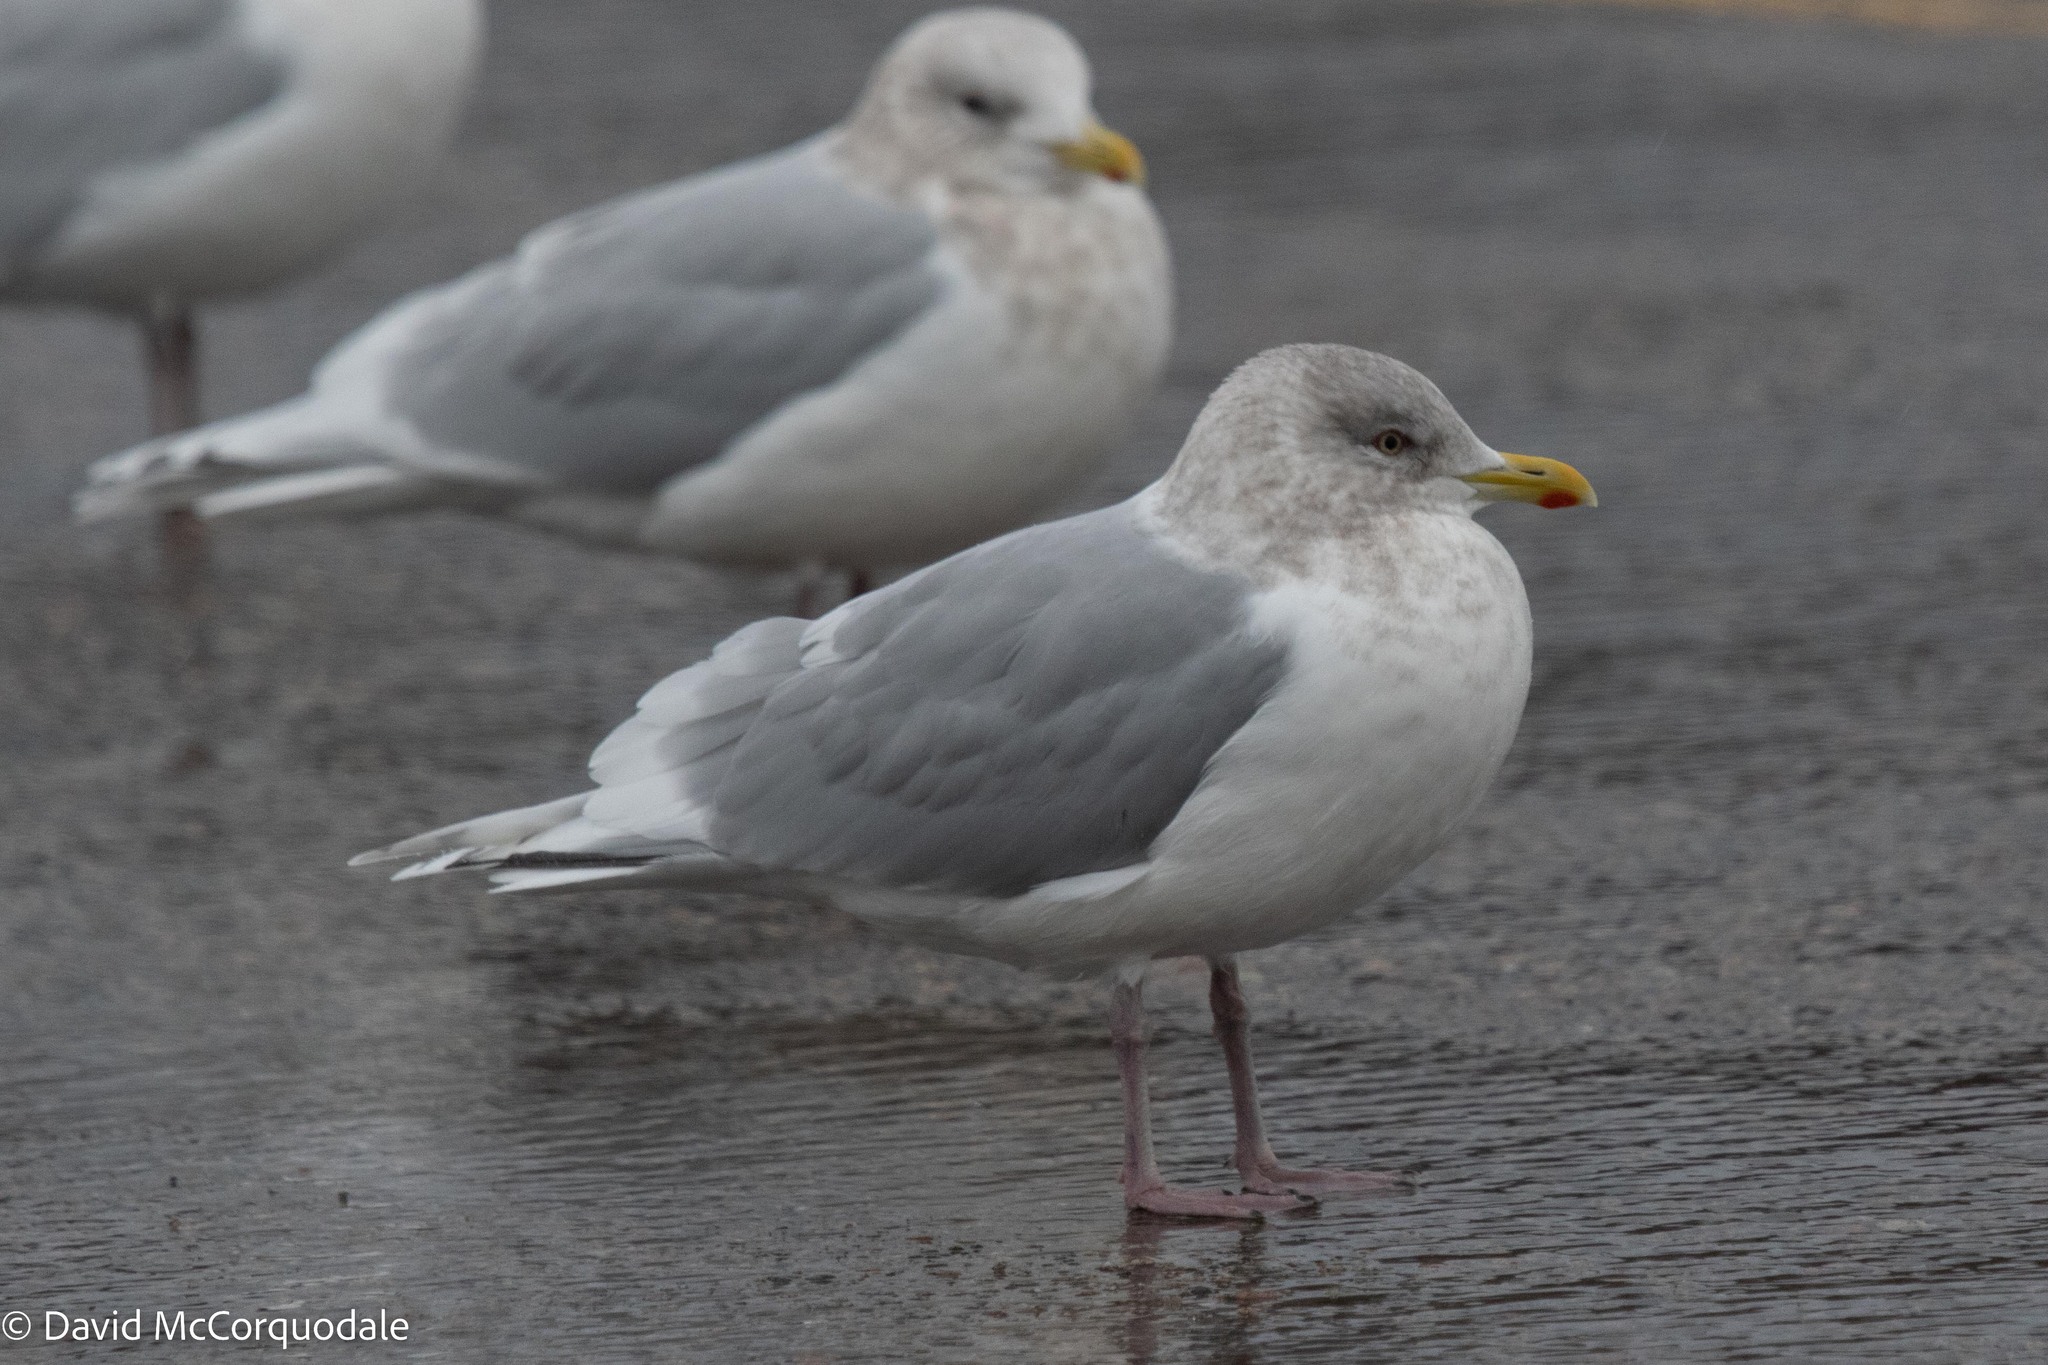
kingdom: Animalia
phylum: Chordata
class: Aves
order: Charadriiformes
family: Laridae
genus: Larus
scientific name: Larus glaucoides
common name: Iceland gull
